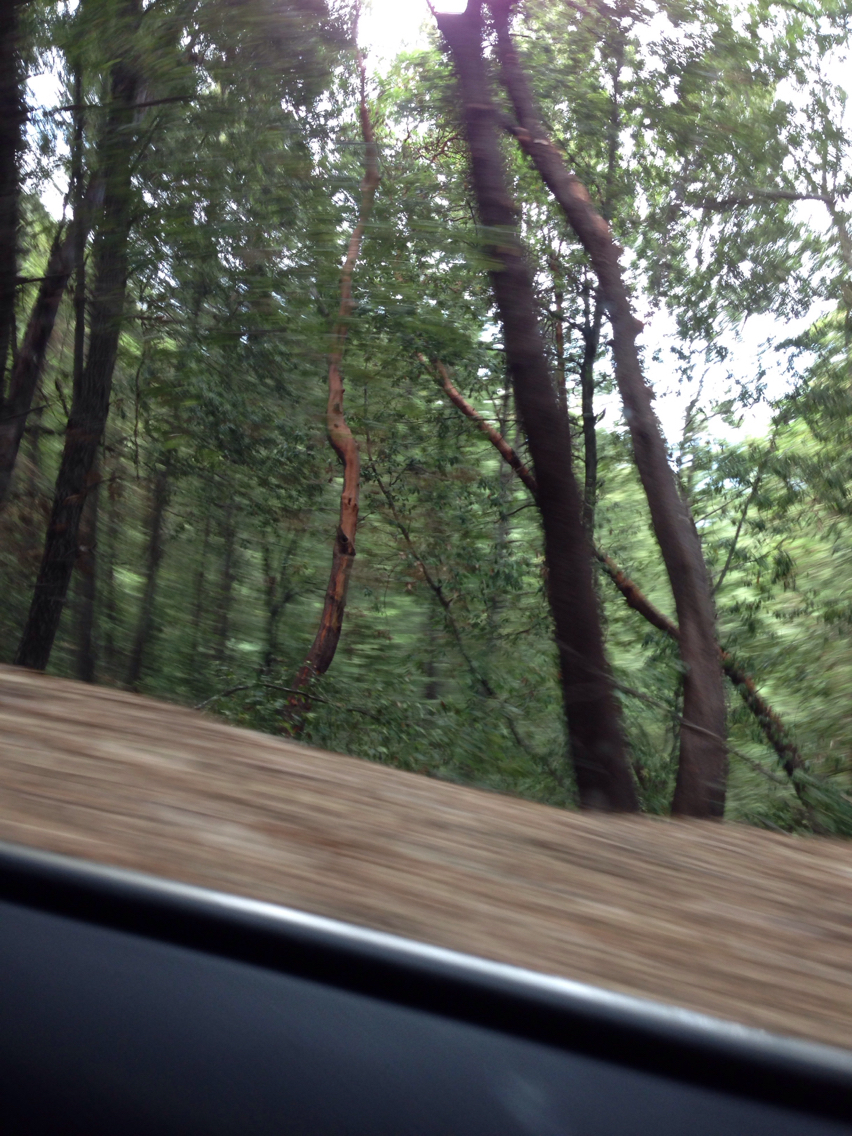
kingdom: Plantae
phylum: Tracheophyta
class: Magnoliopsida
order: Ericales
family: Ericaceae
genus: Arbutus
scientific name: Arbutus menziesii
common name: Pacific madrone
